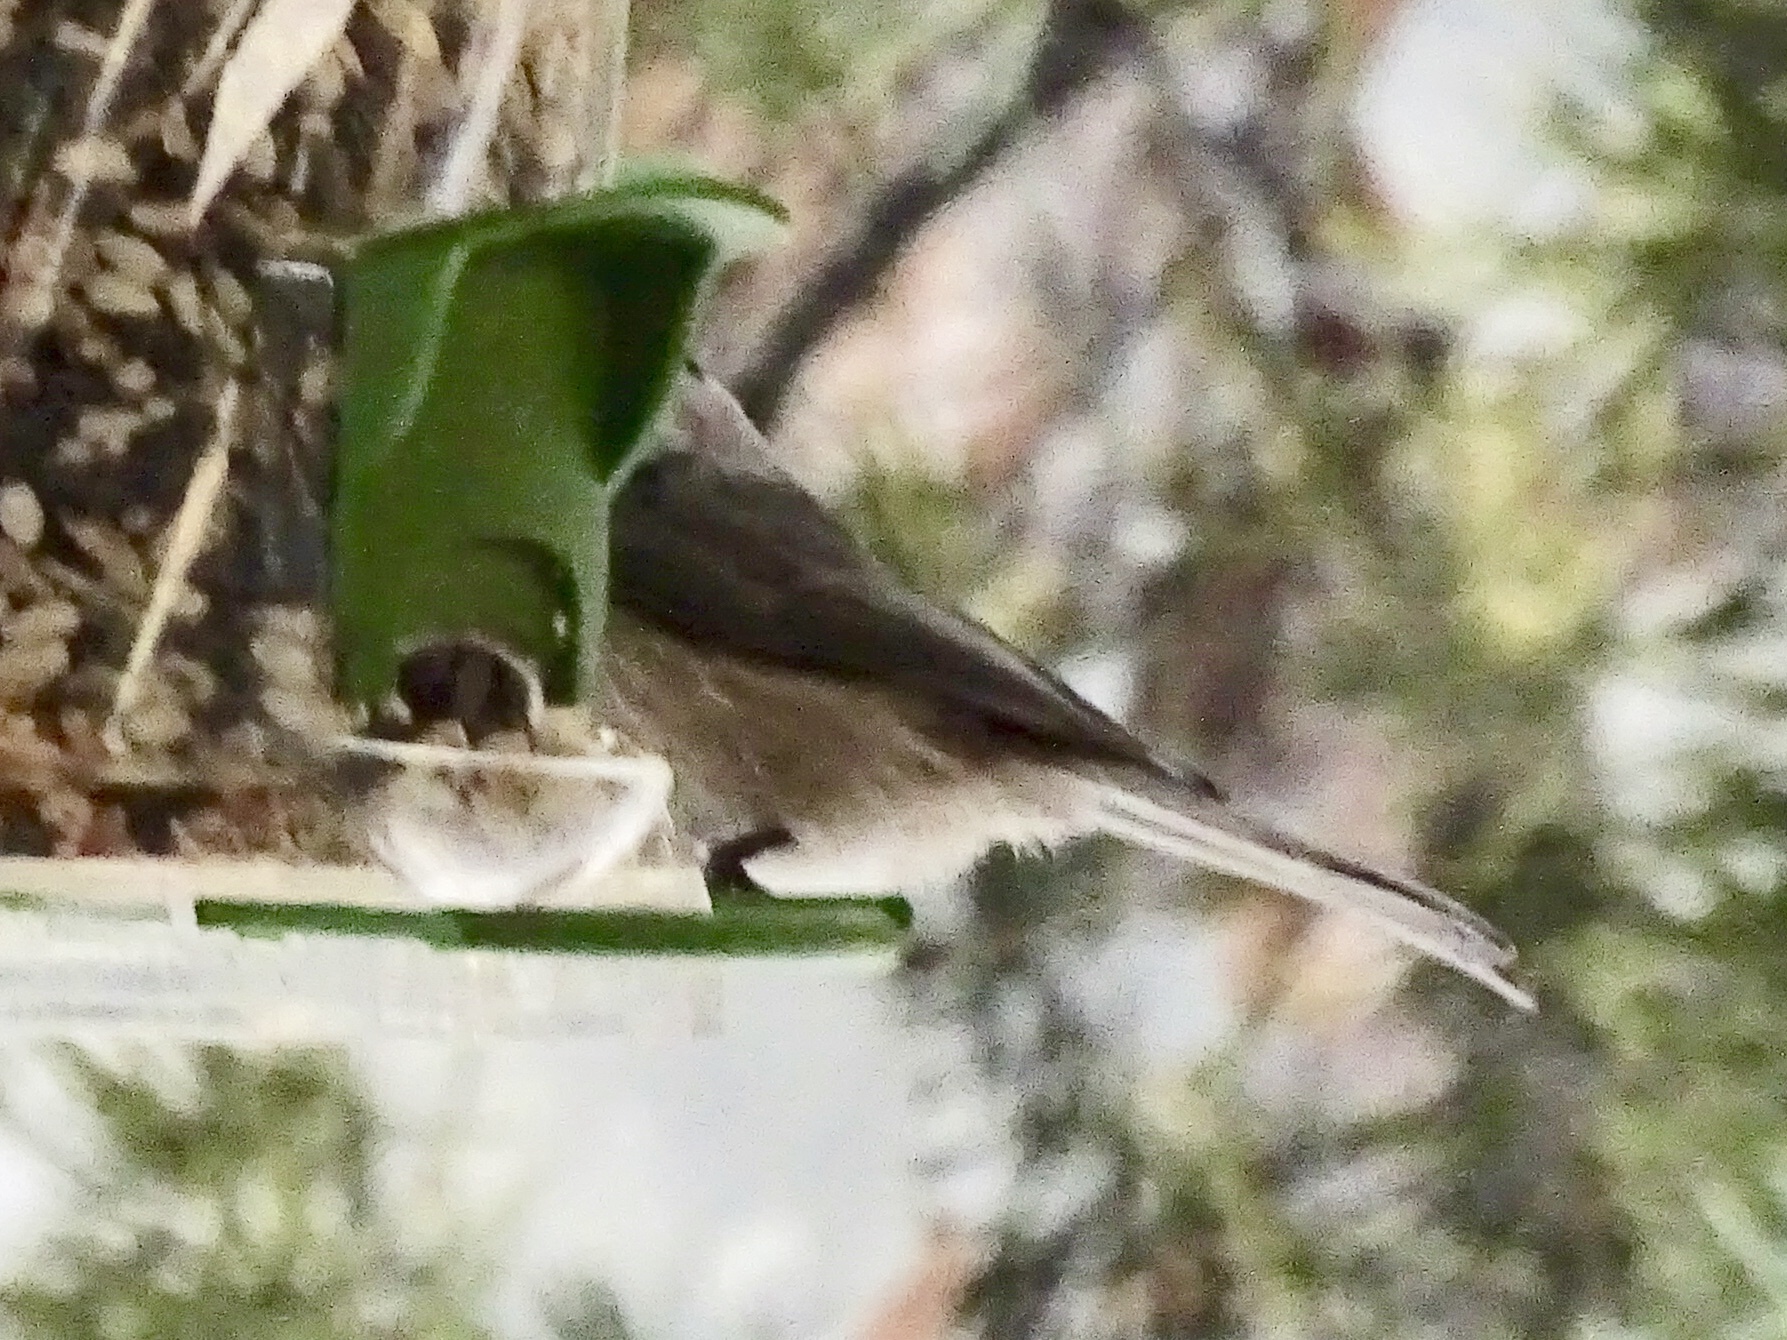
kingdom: Animalia
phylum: Chordata
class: Aves
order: Passeriformes
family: Paridae
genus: Poecile
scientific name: Poecile gambeli
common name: Mountain chickadee
